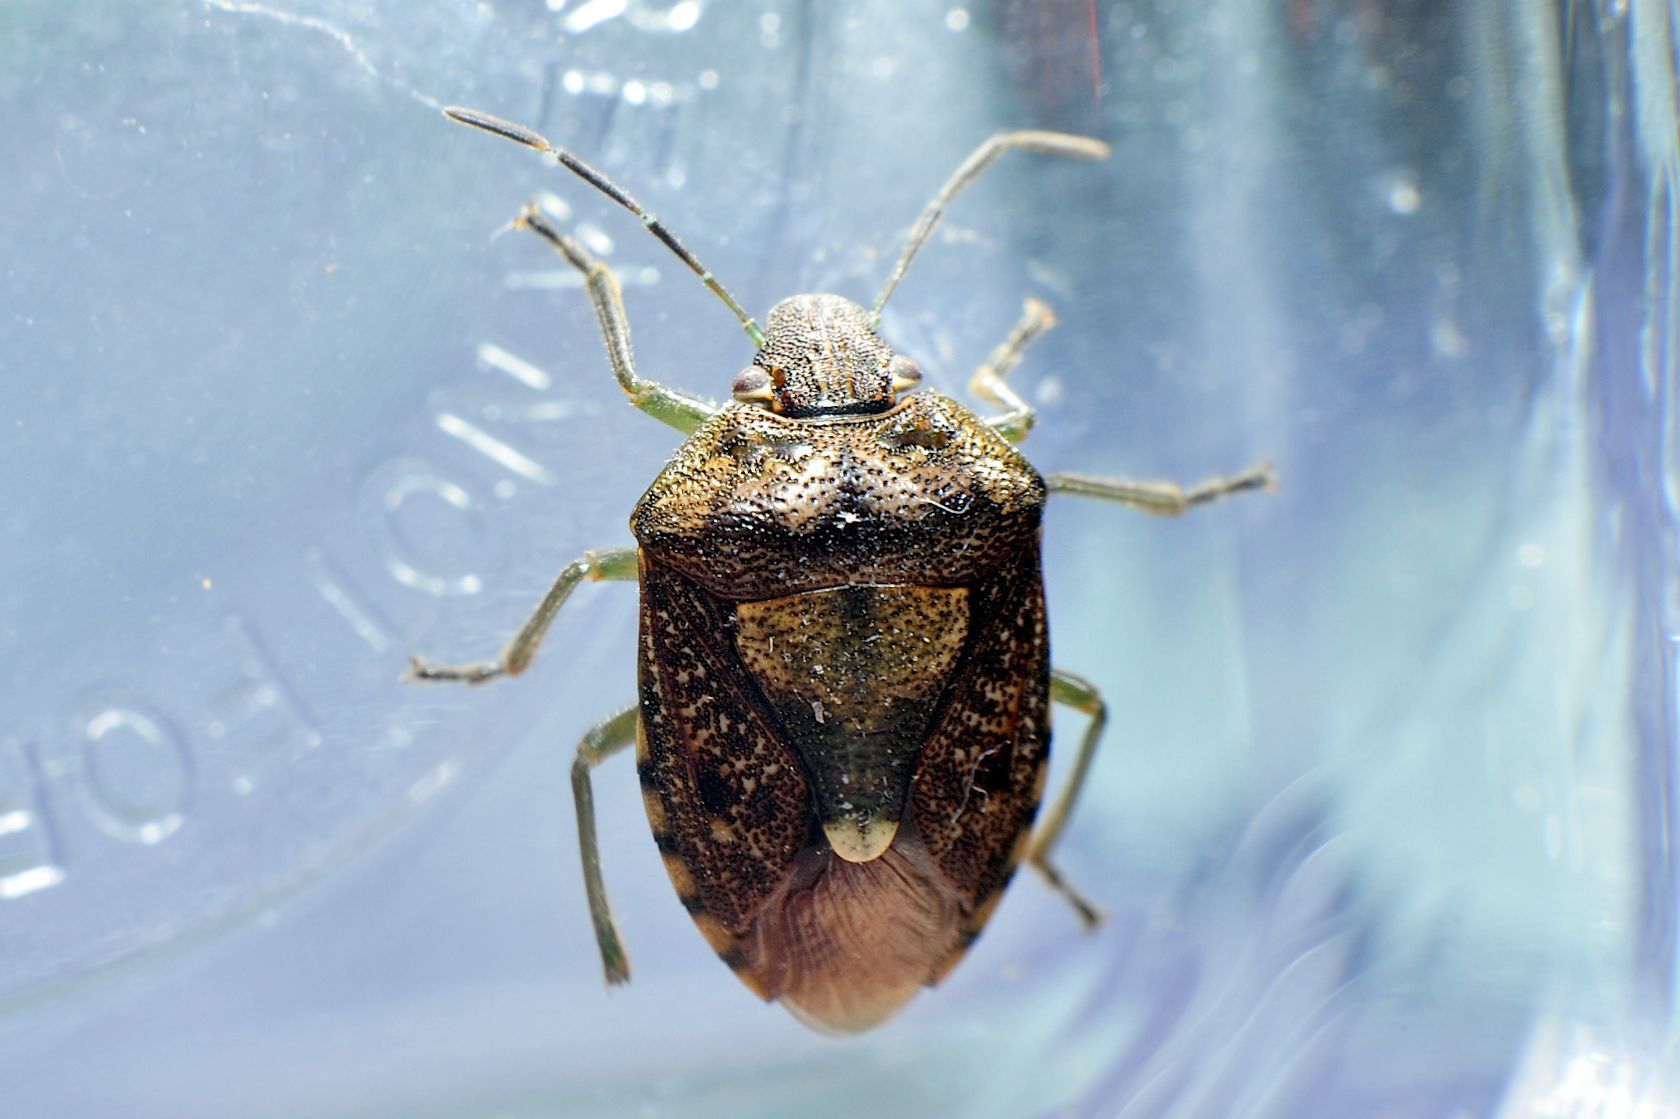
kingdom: Animalia
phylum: Arthropoda
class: Insecta
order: Hemiptera
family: Pentatomidae
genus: Banasa
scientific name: Banasa sordida
